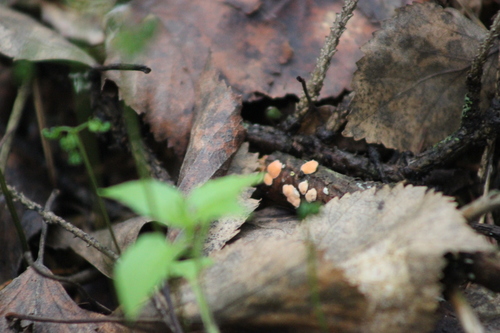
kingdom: Fungi
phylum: Basidiomycota
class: Agaricomycetes
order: Russulales
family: Stereaceae
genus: Aleurodiscus
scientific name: Aleurodiscus amorphus
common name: Orange discus
